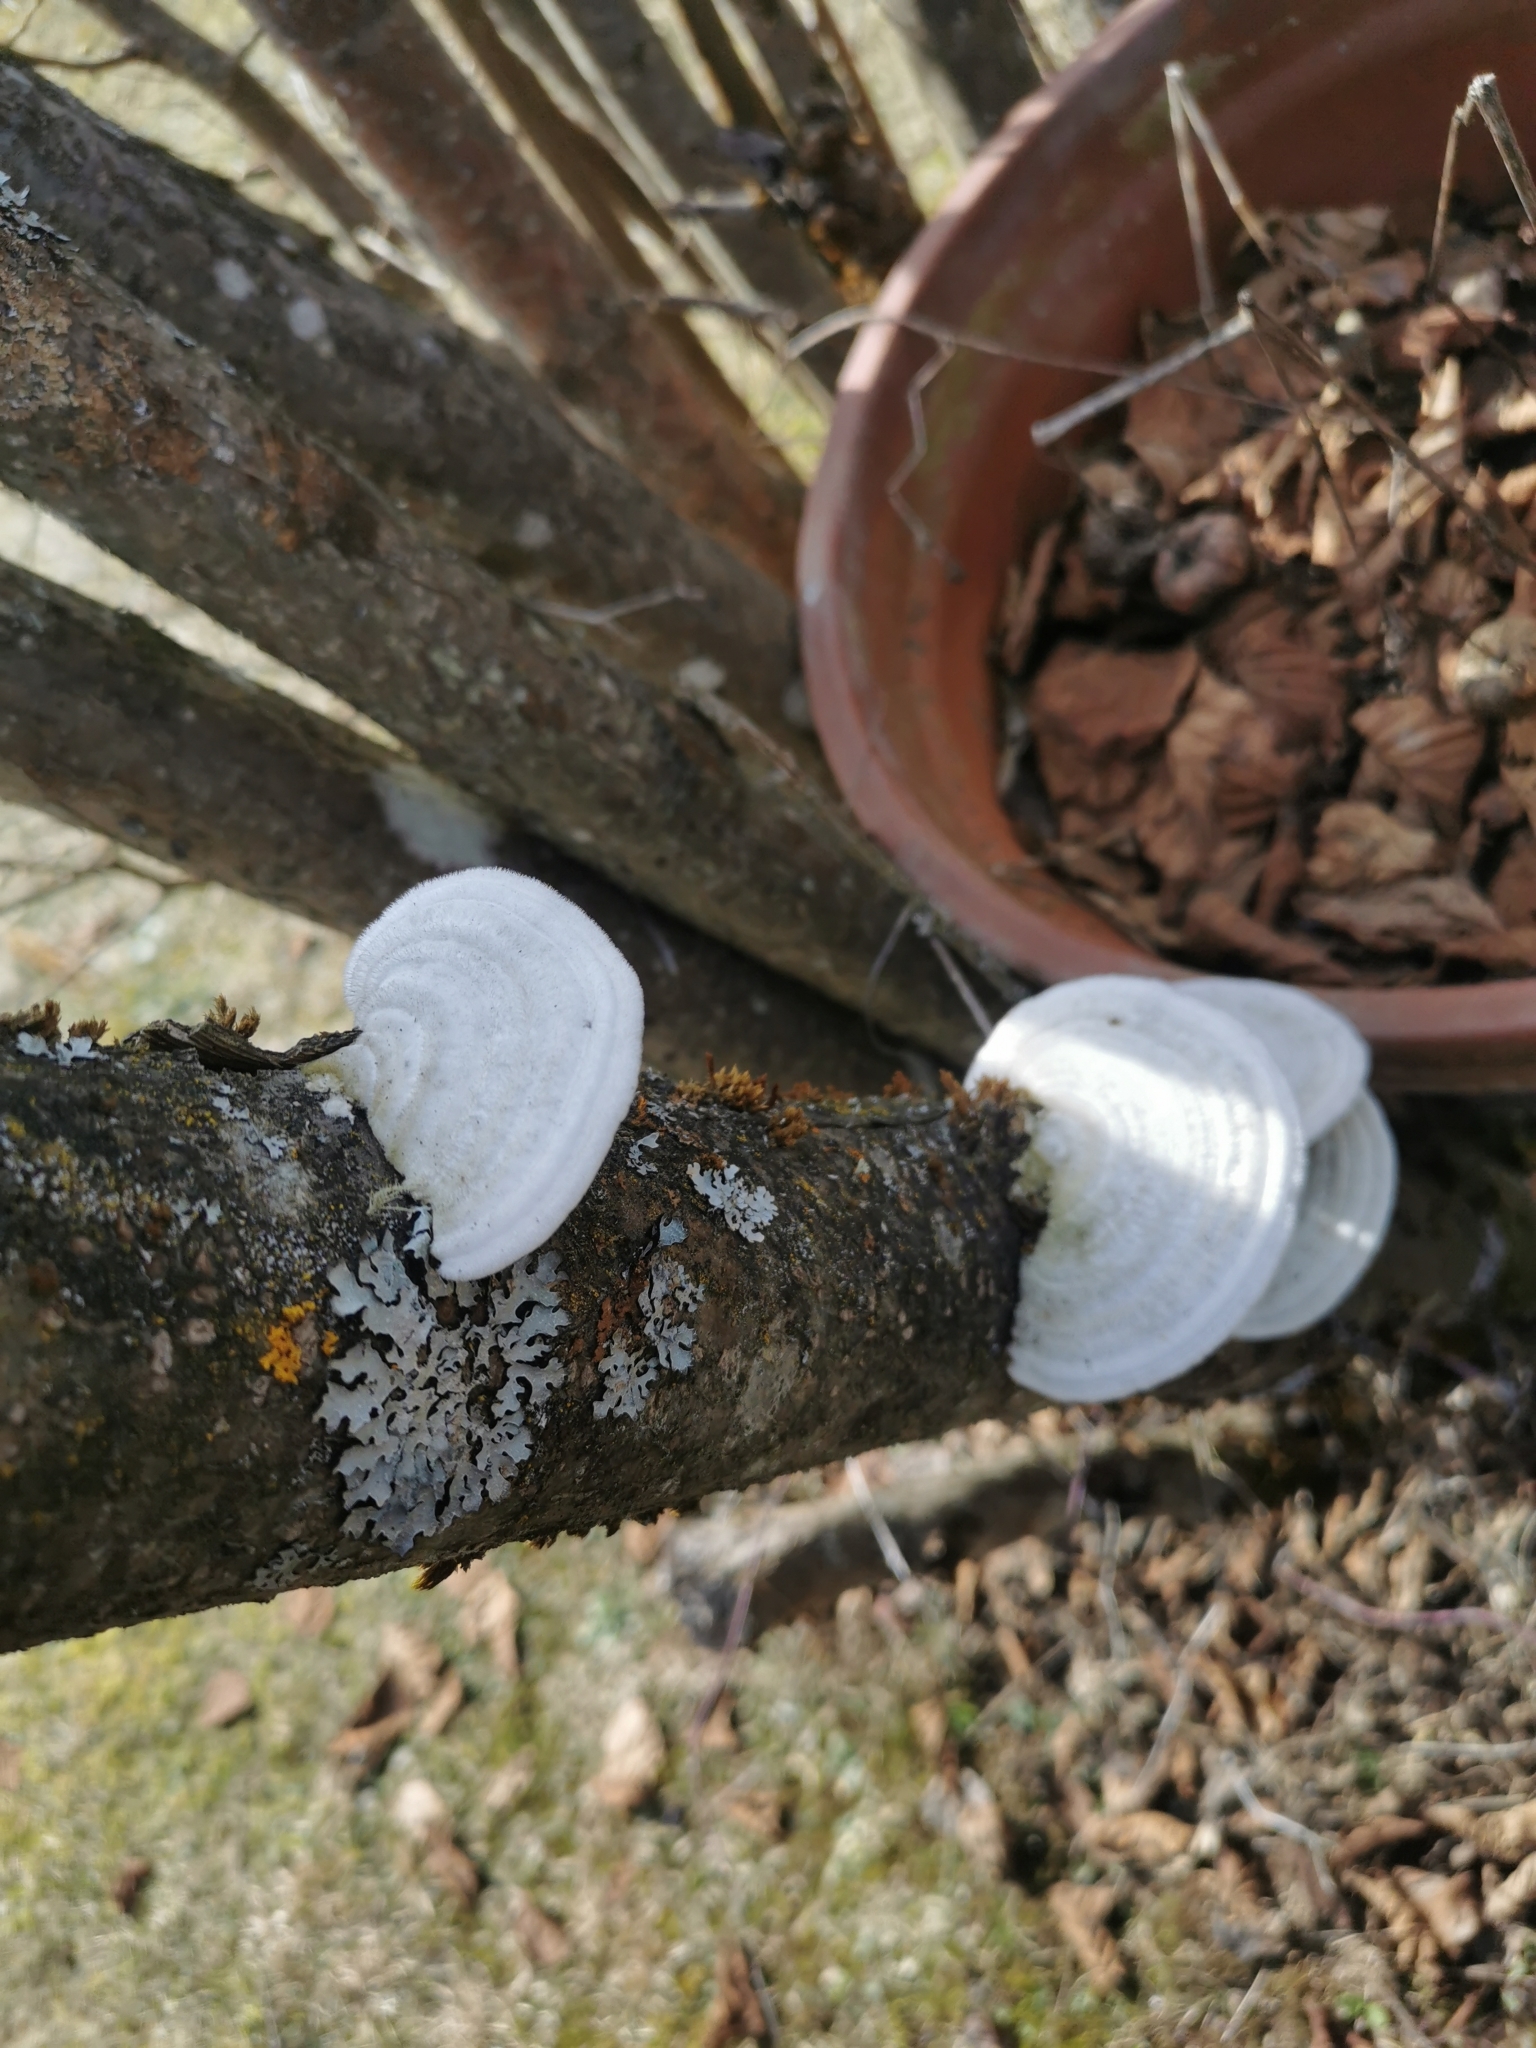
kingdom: Fungi
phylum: Basidiomycota
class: Agaricomycetes
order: Polyporales
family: Polyporaceae
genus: Trametes
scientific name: Trametes hirsuta
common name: Hairy bracket
